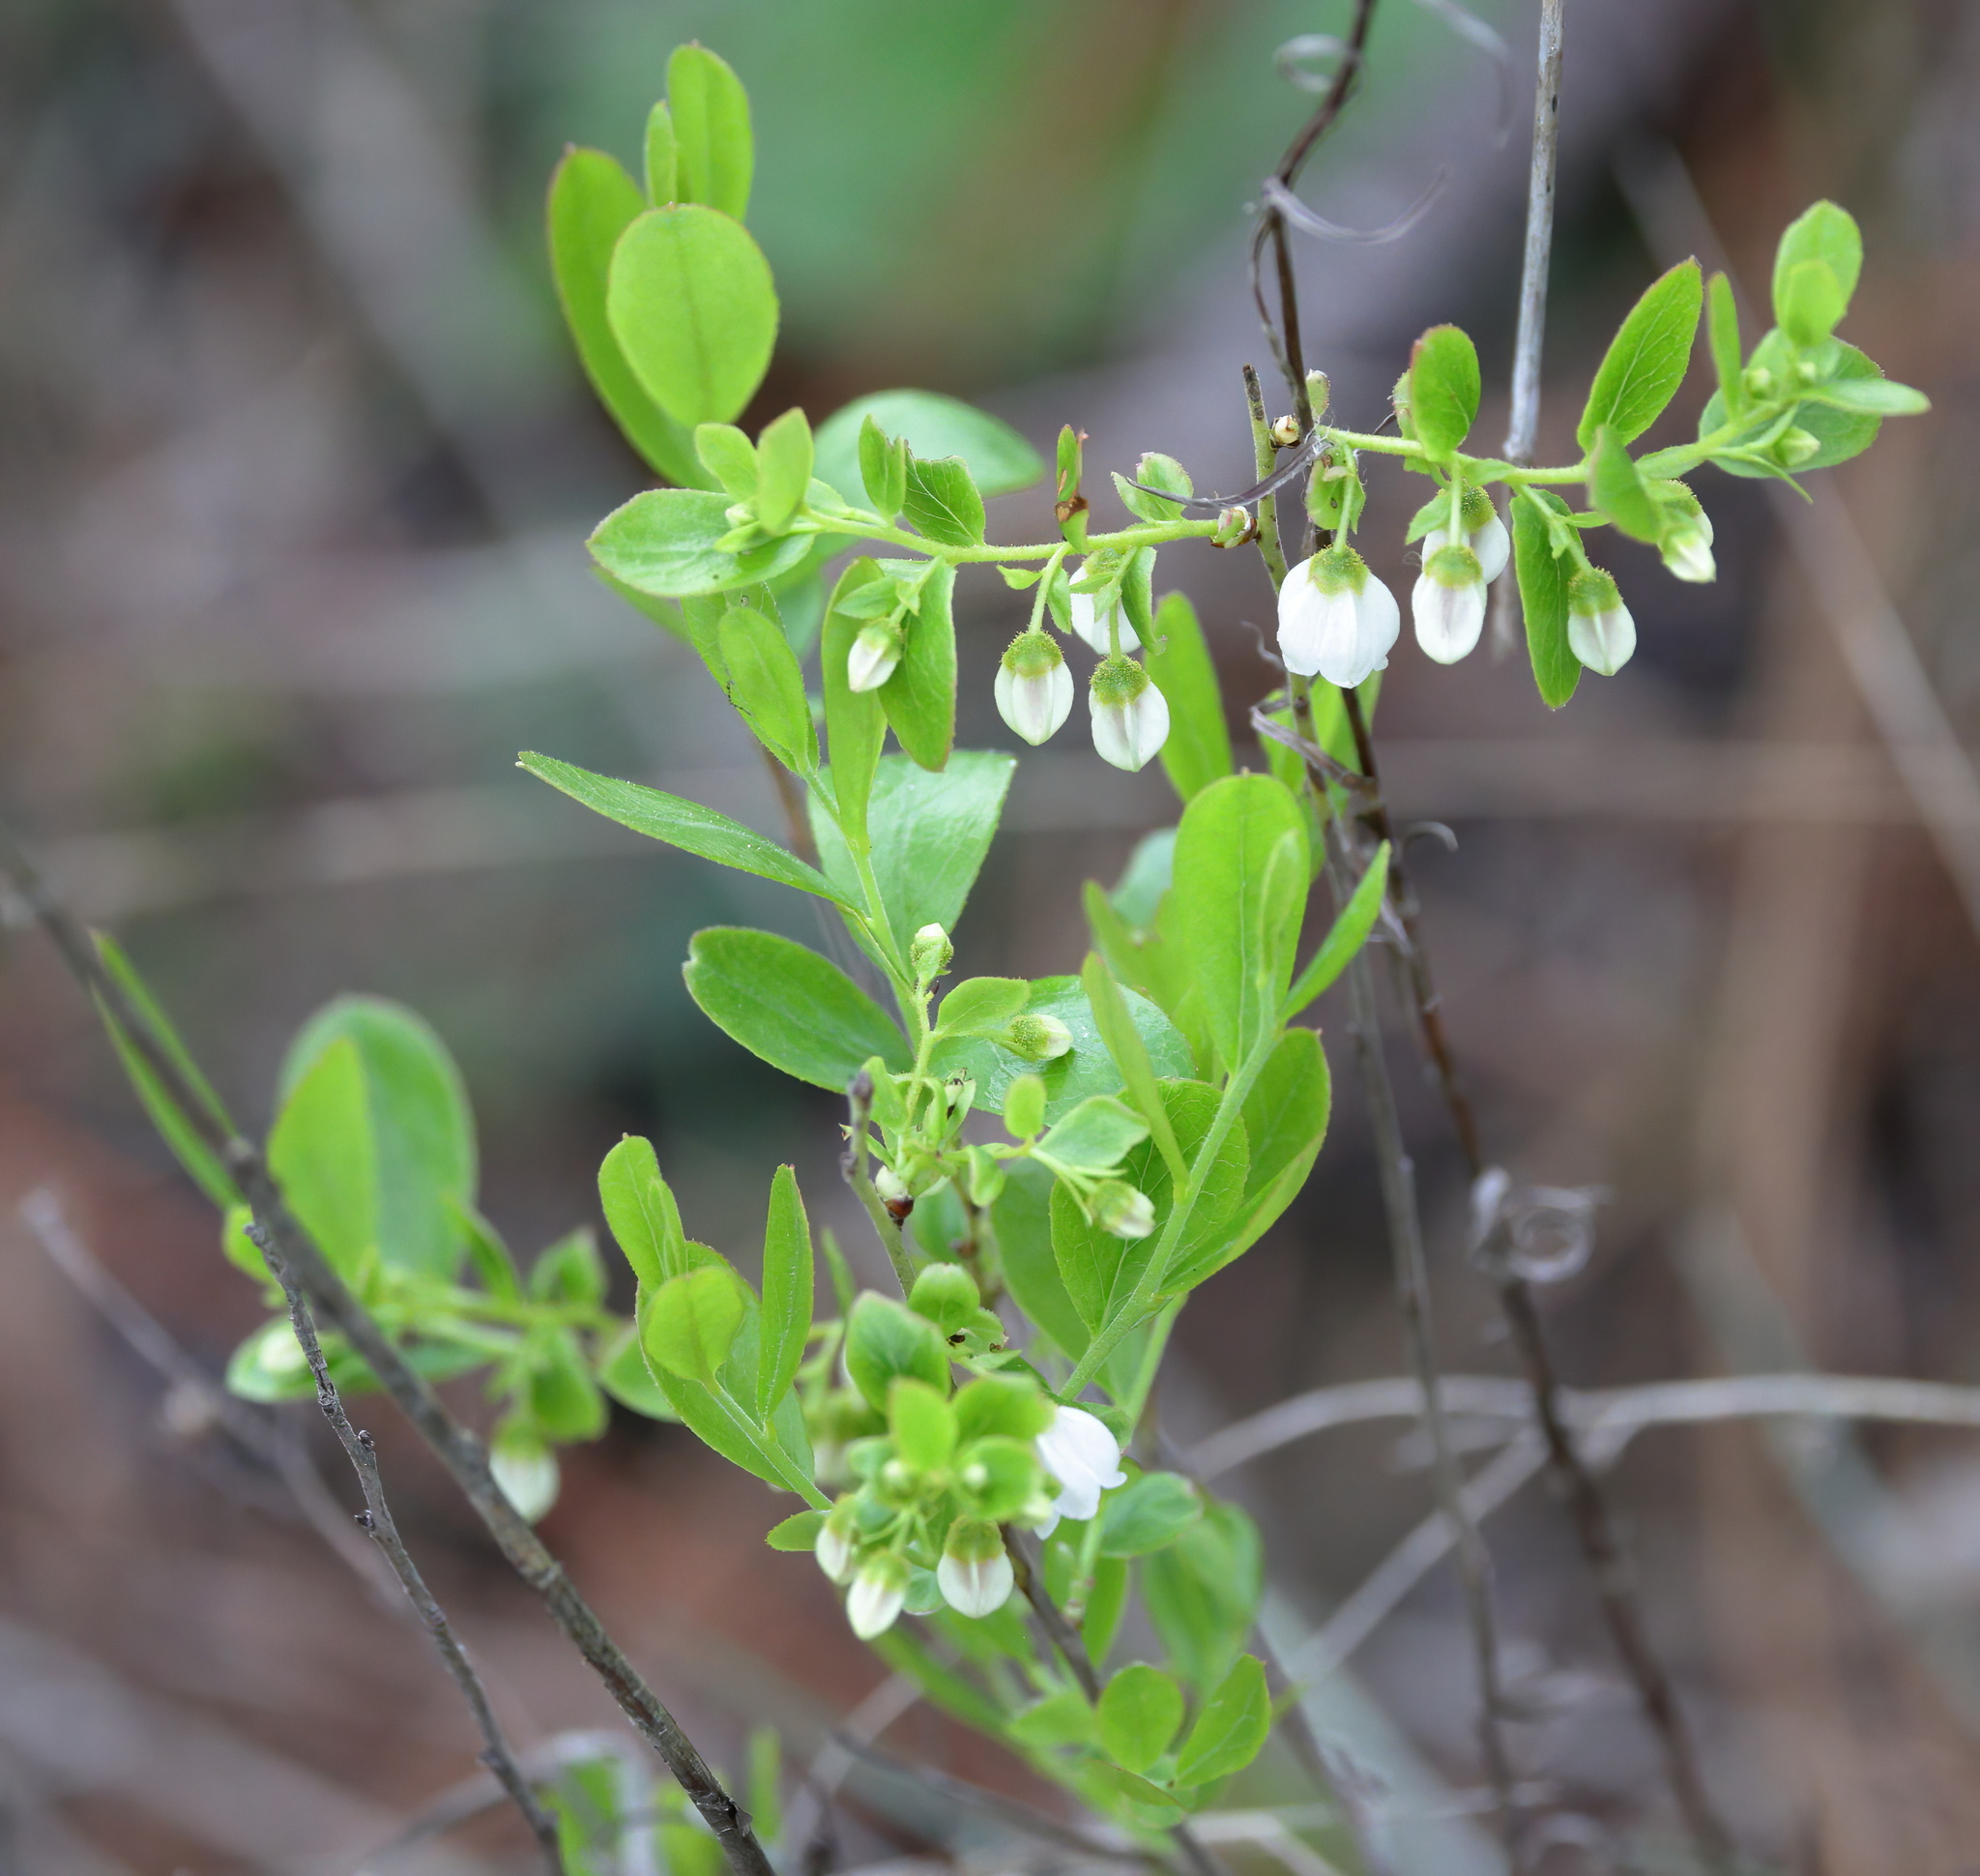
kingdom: Plantae
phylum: Tracheophyta
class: Magnoliopsida
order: Ericales
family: Ericaceae
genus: Gaylussacia
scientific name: Gaylussacia dumosa
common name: Dwarf huckleberry
